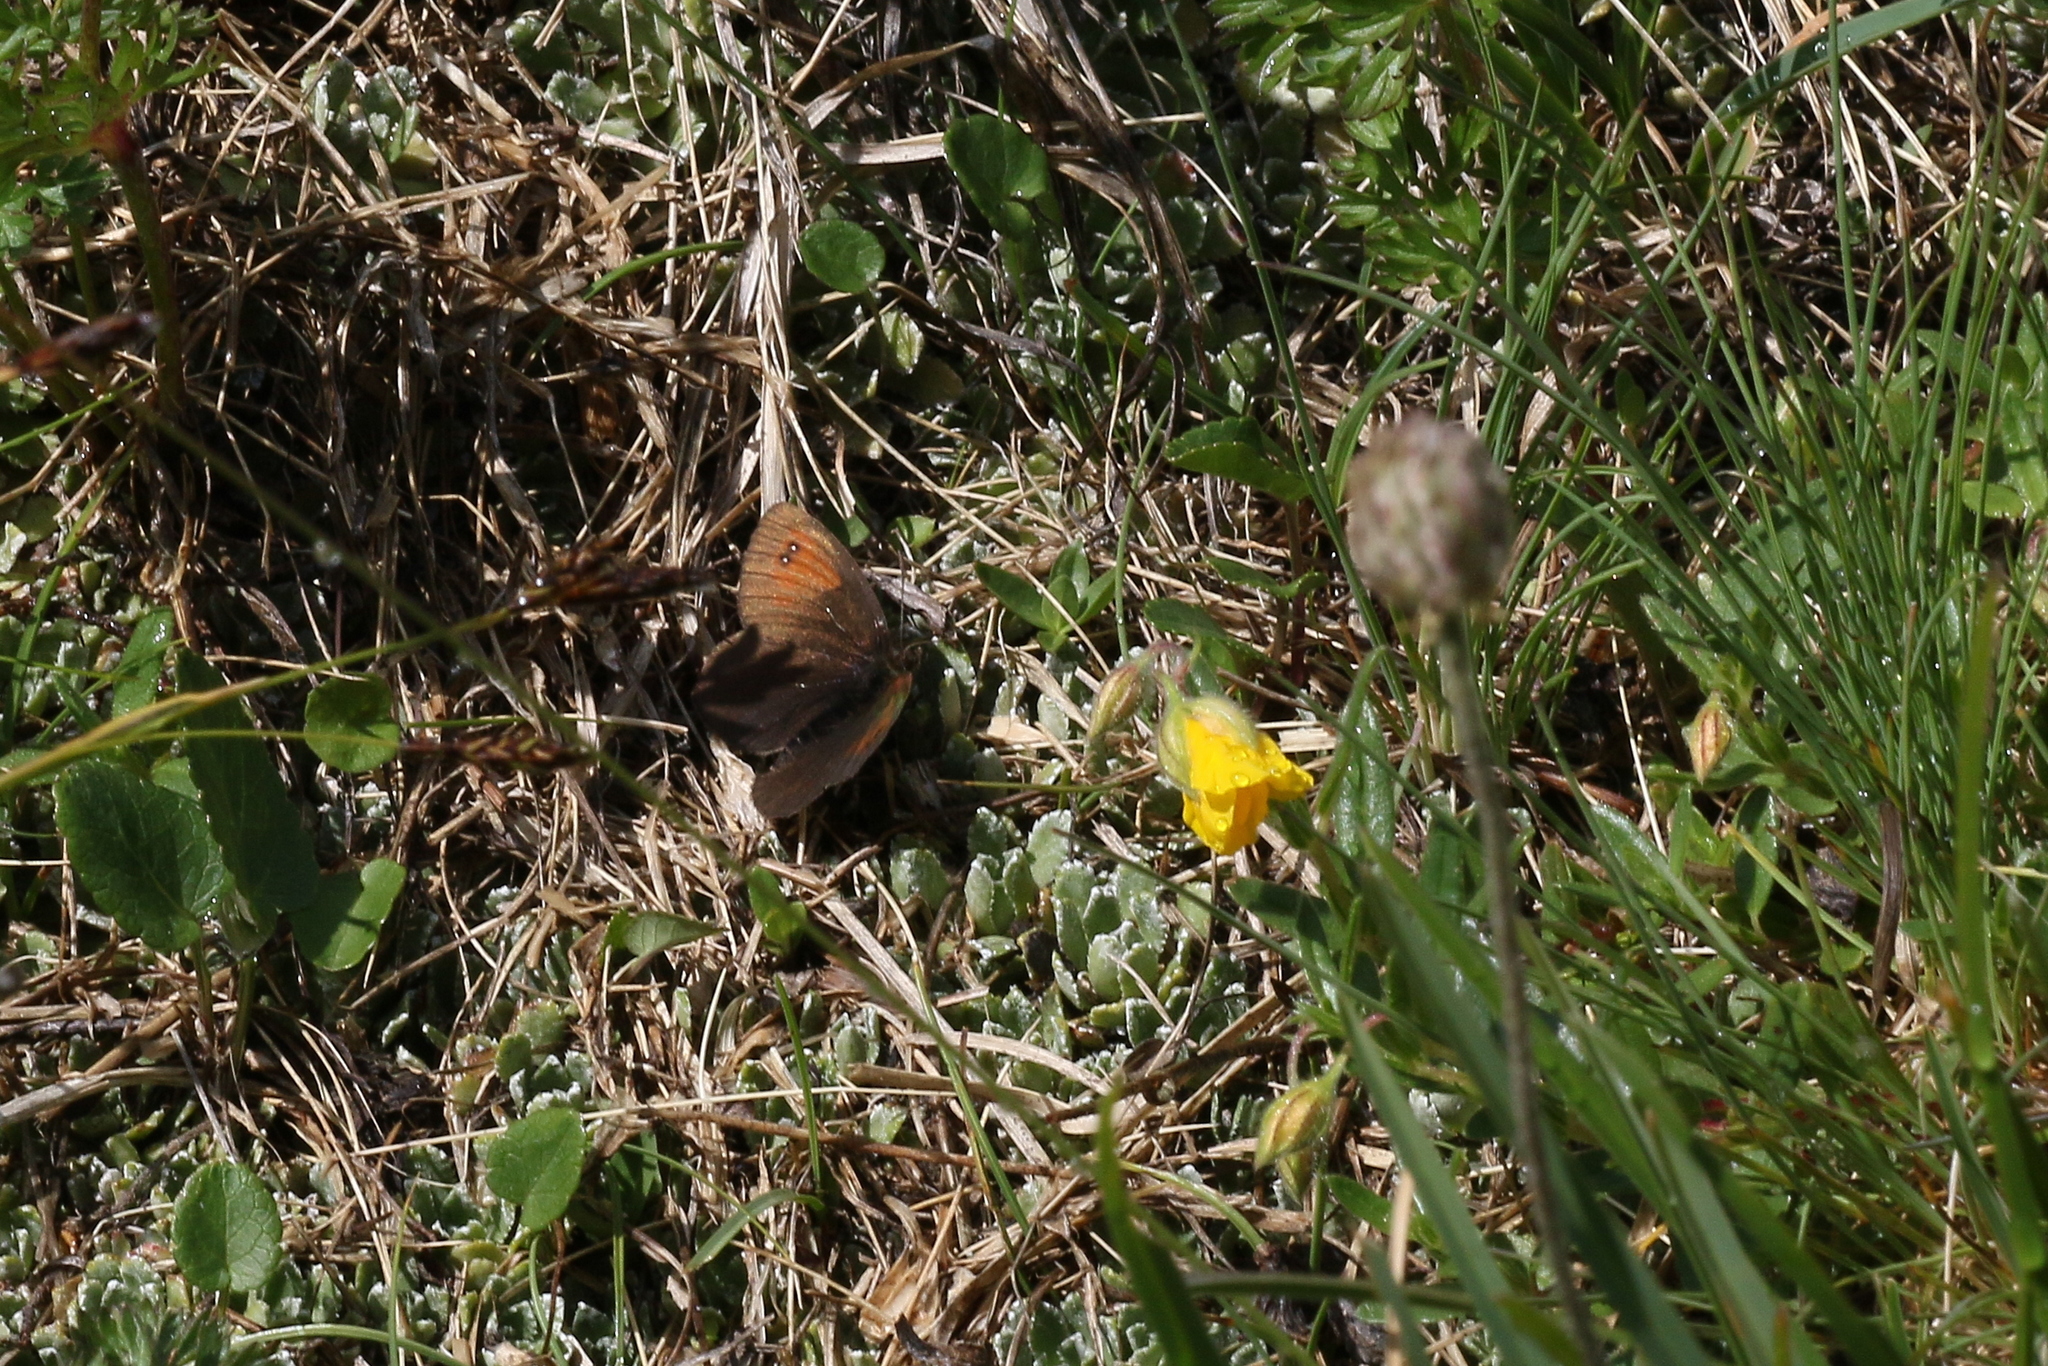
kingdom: Animalia
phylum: Arthropoda
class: Insecta
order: Lepidoptera
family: Nymphalidae
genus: Erebia
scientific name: Erebia nivalis
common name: De lesse’s brassy ringlet
